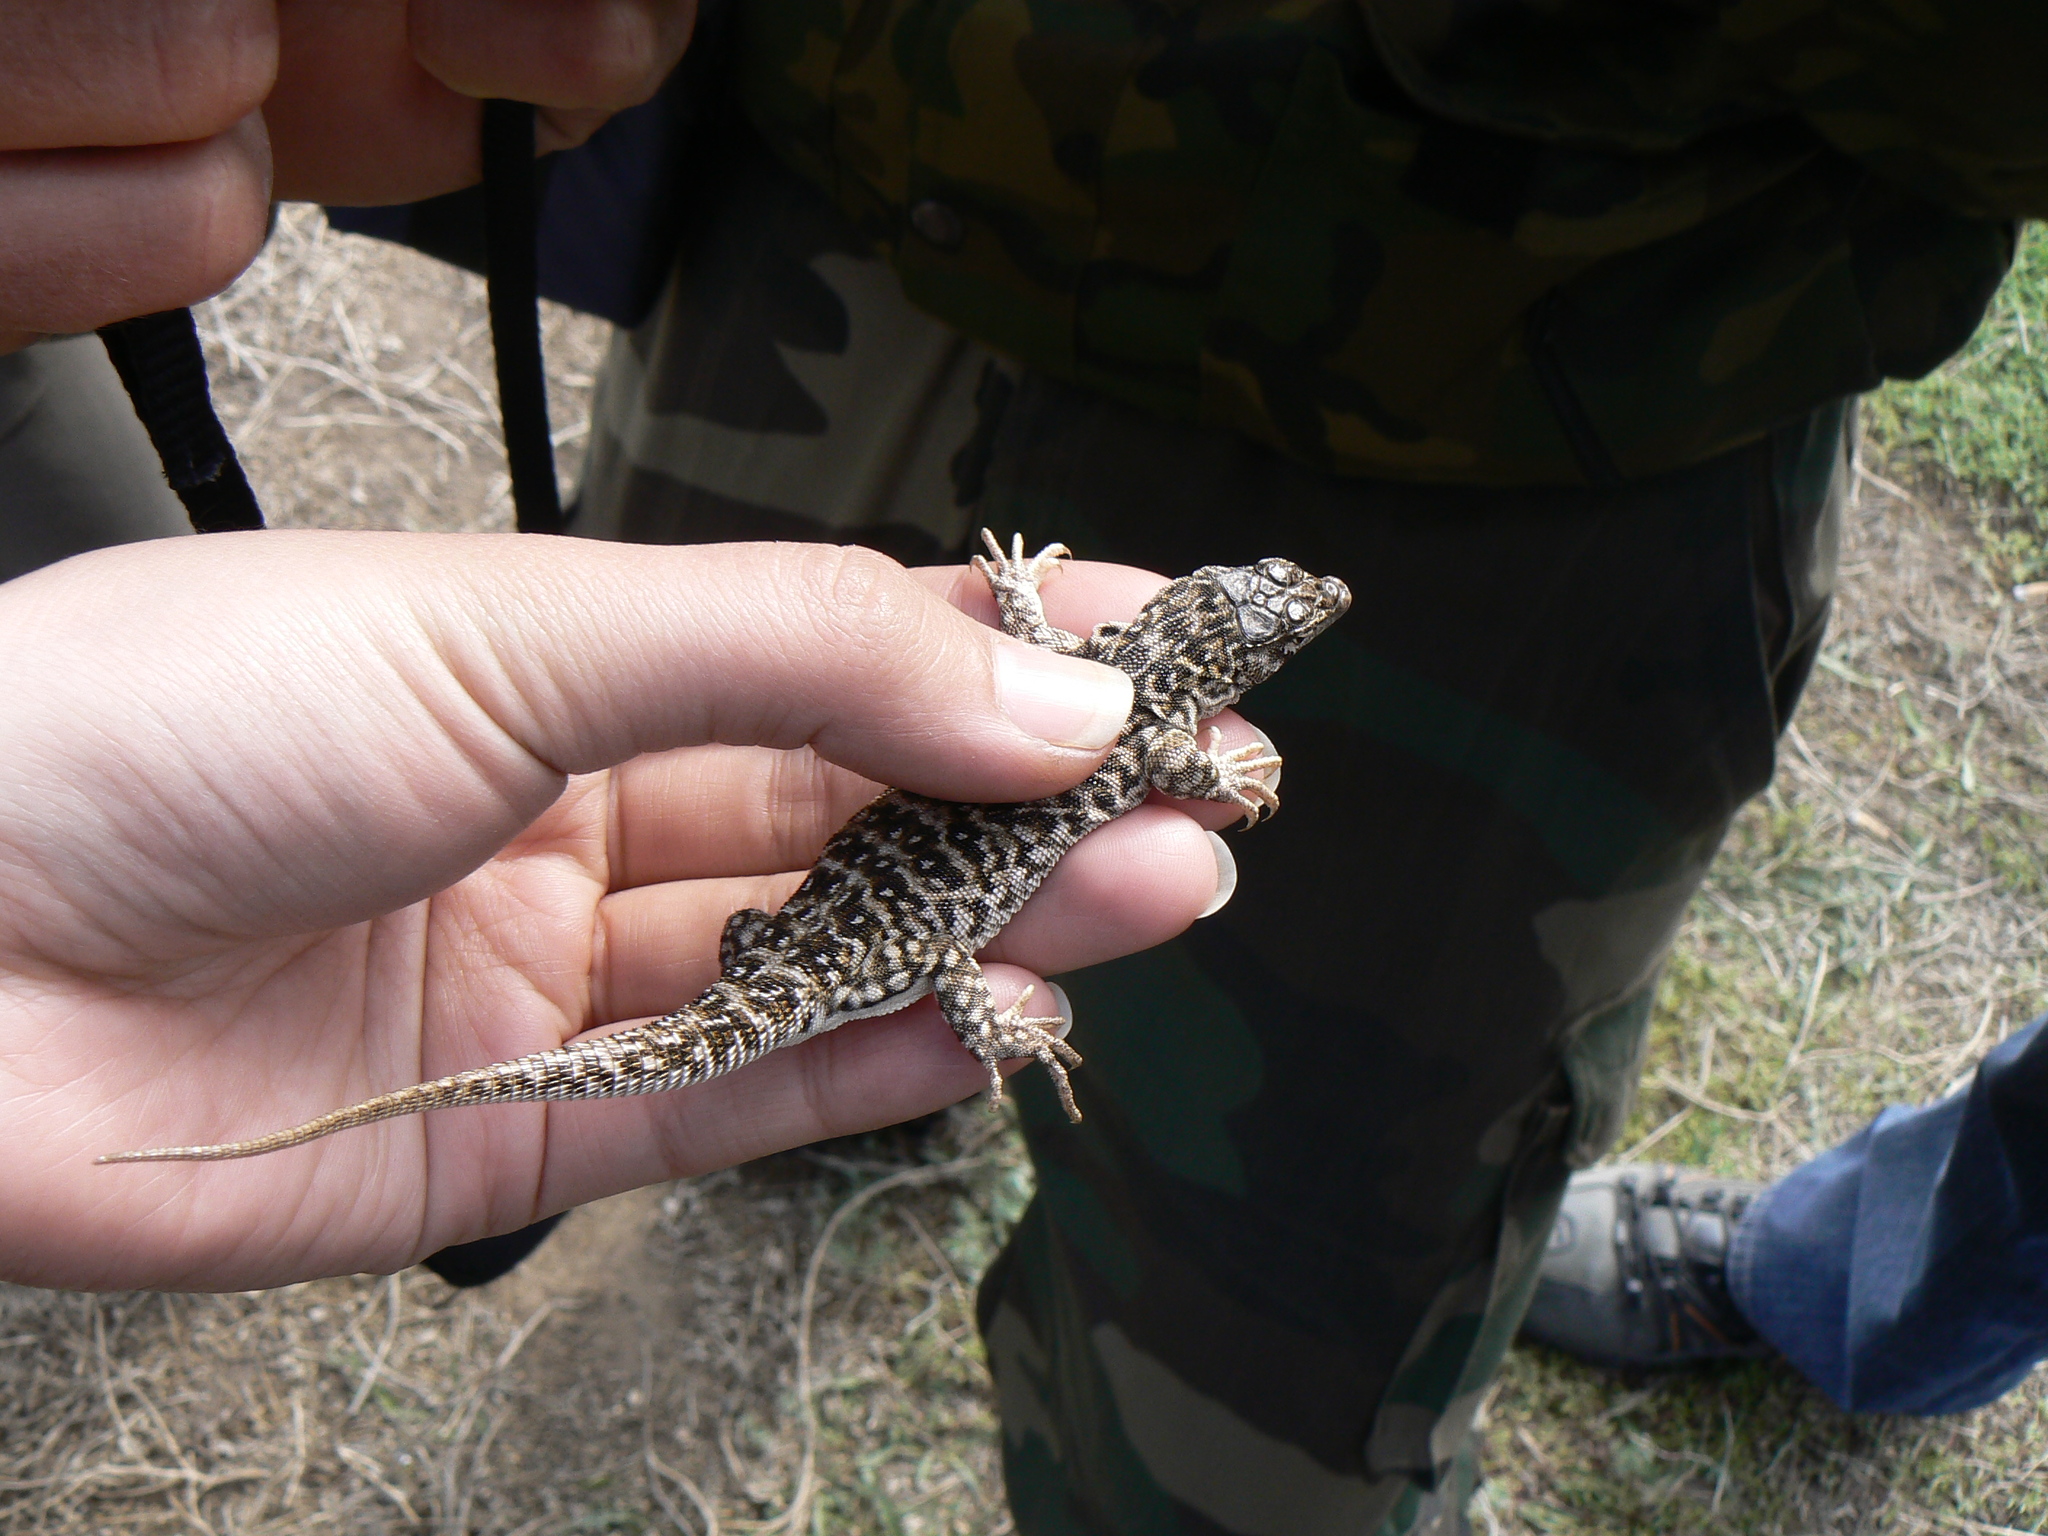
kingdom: Animalia
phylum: Chordata
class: Squamata
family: Lacertidae
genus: Eremias
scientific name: Eremias arguta
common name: Racerunner
